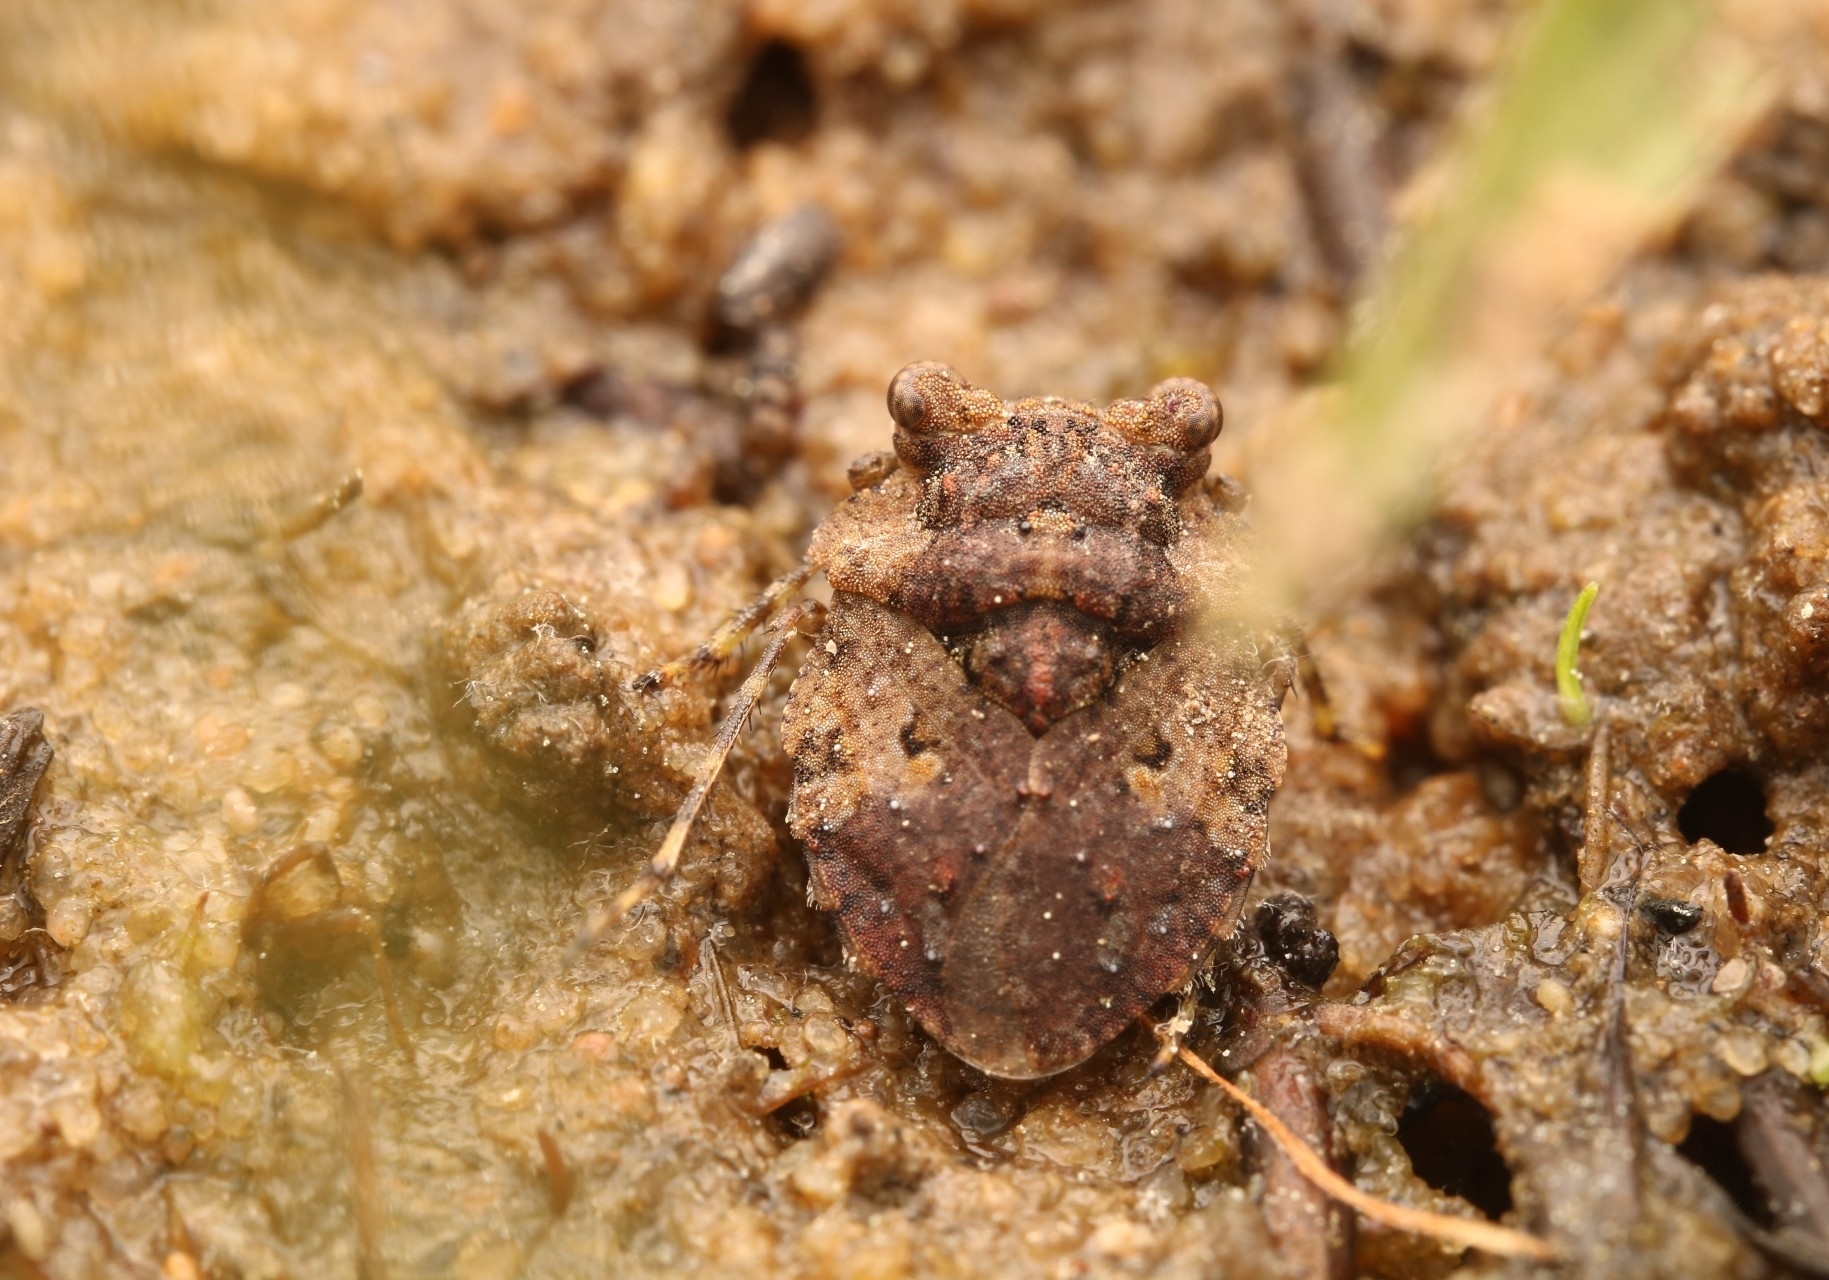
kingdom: Animalia
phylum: Arthropoda
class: Insecta
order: Hemiptera
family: Gelastocoridae
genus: Gelastocoris
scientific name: Gelastocoris oculatus
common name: Toad bug
